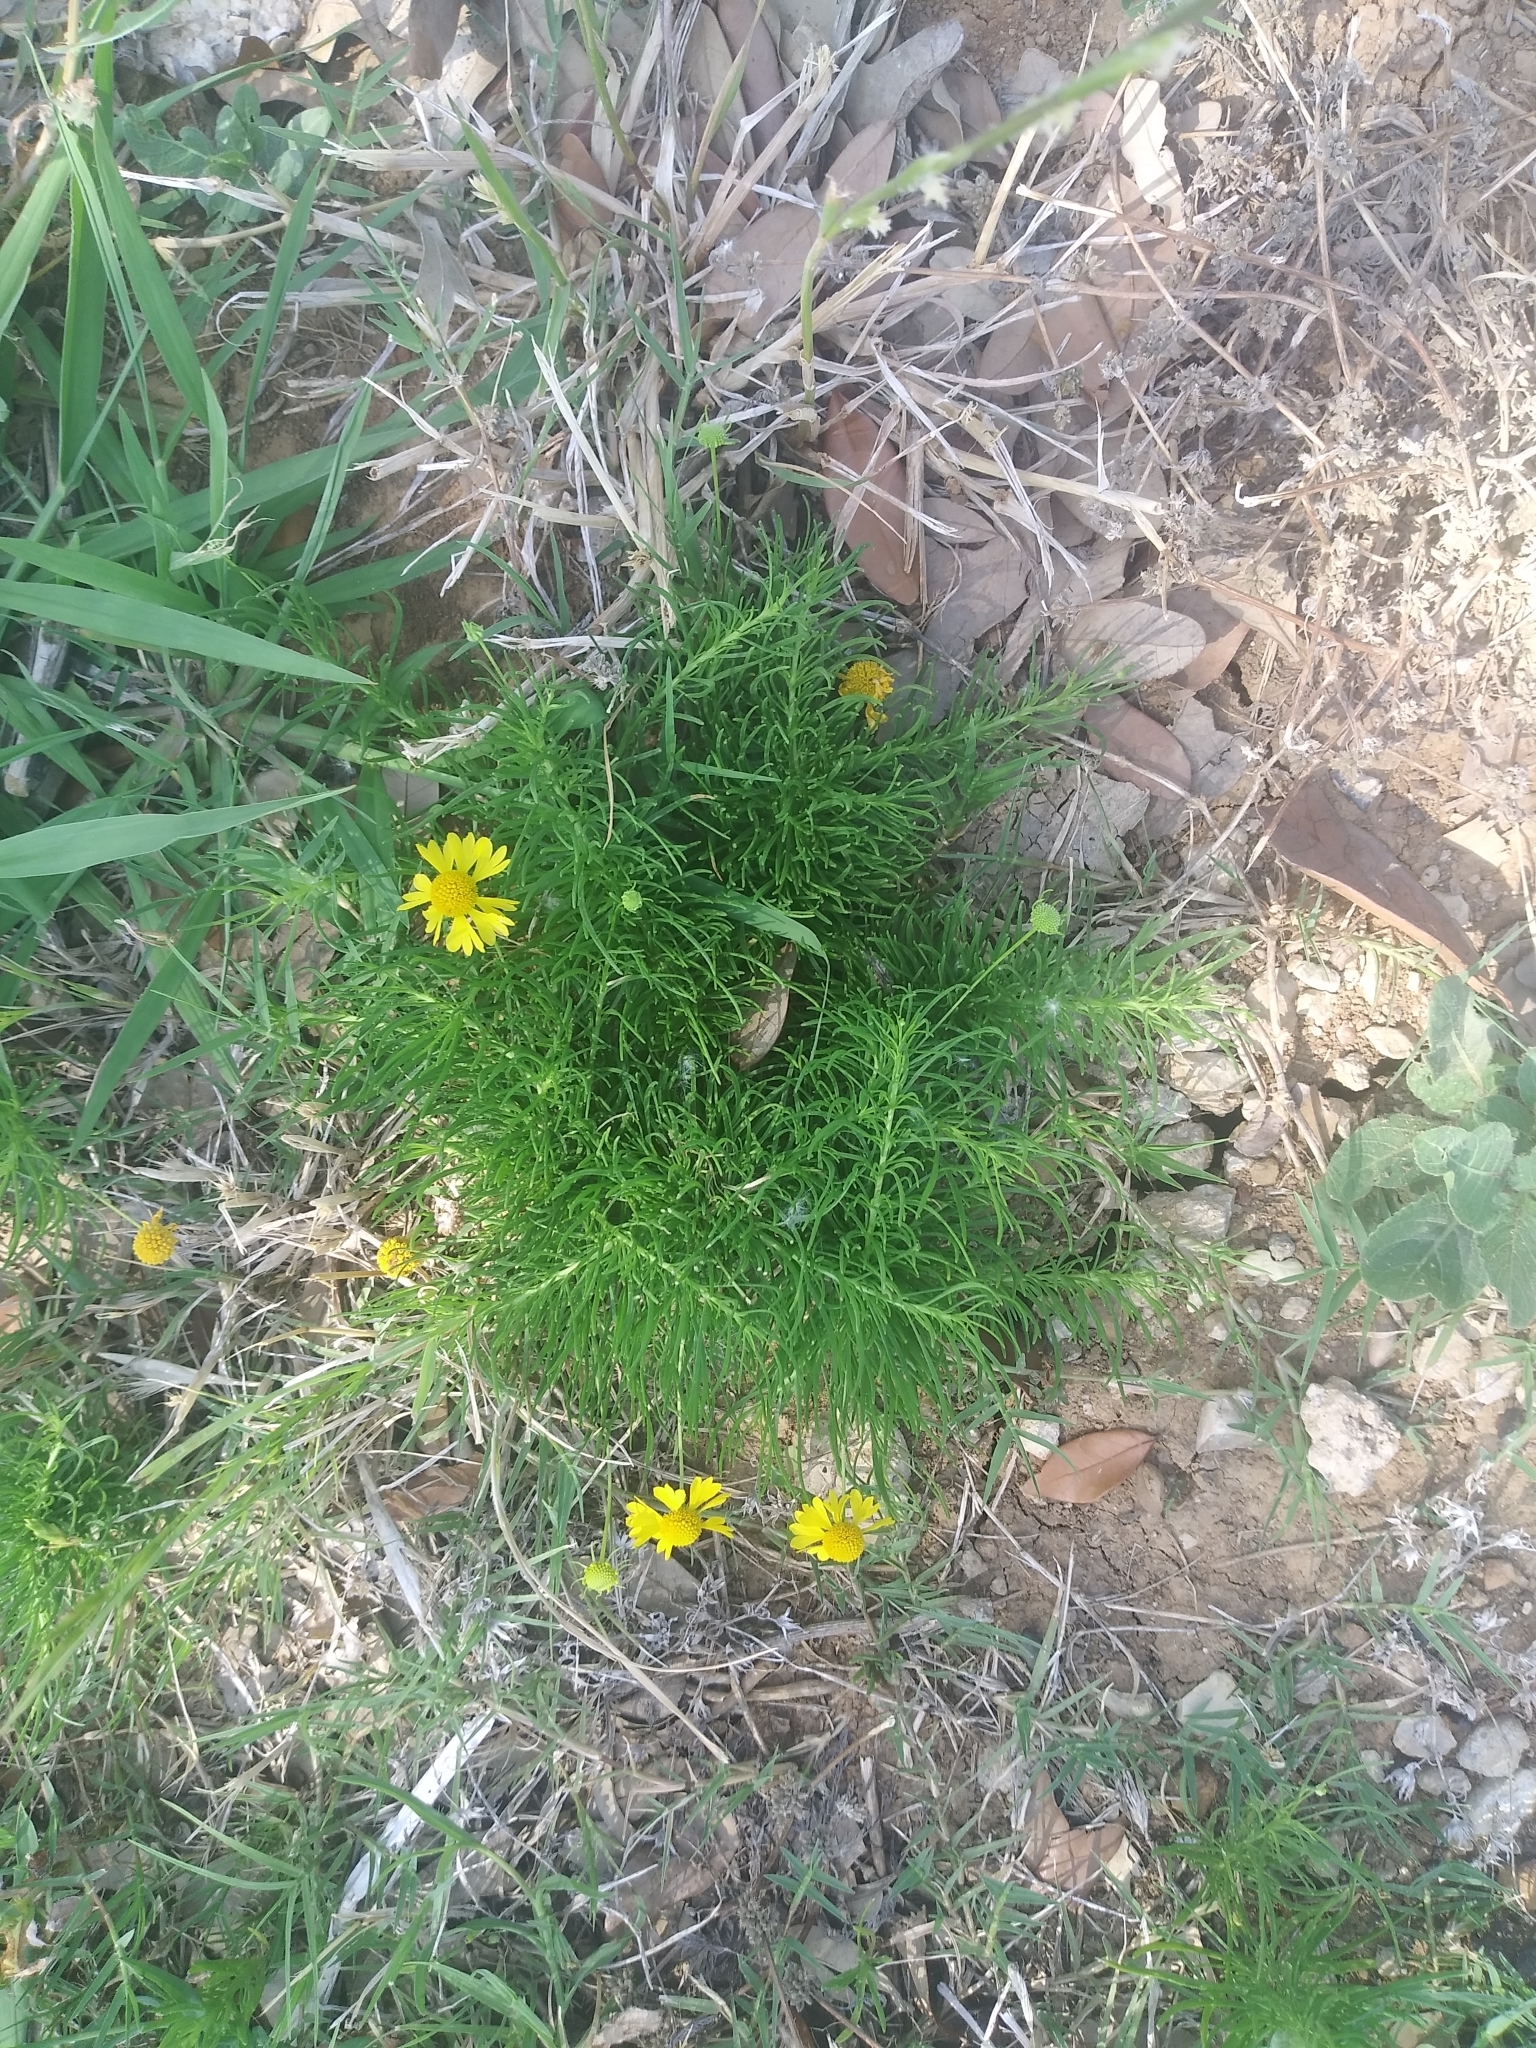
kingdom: Plantae
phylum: Tracheophyta
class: Magnoliopsida
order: Asterales
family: Asteraceae
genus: Helenium
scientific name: Helenium amarum
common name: Bitter sneezeweed
